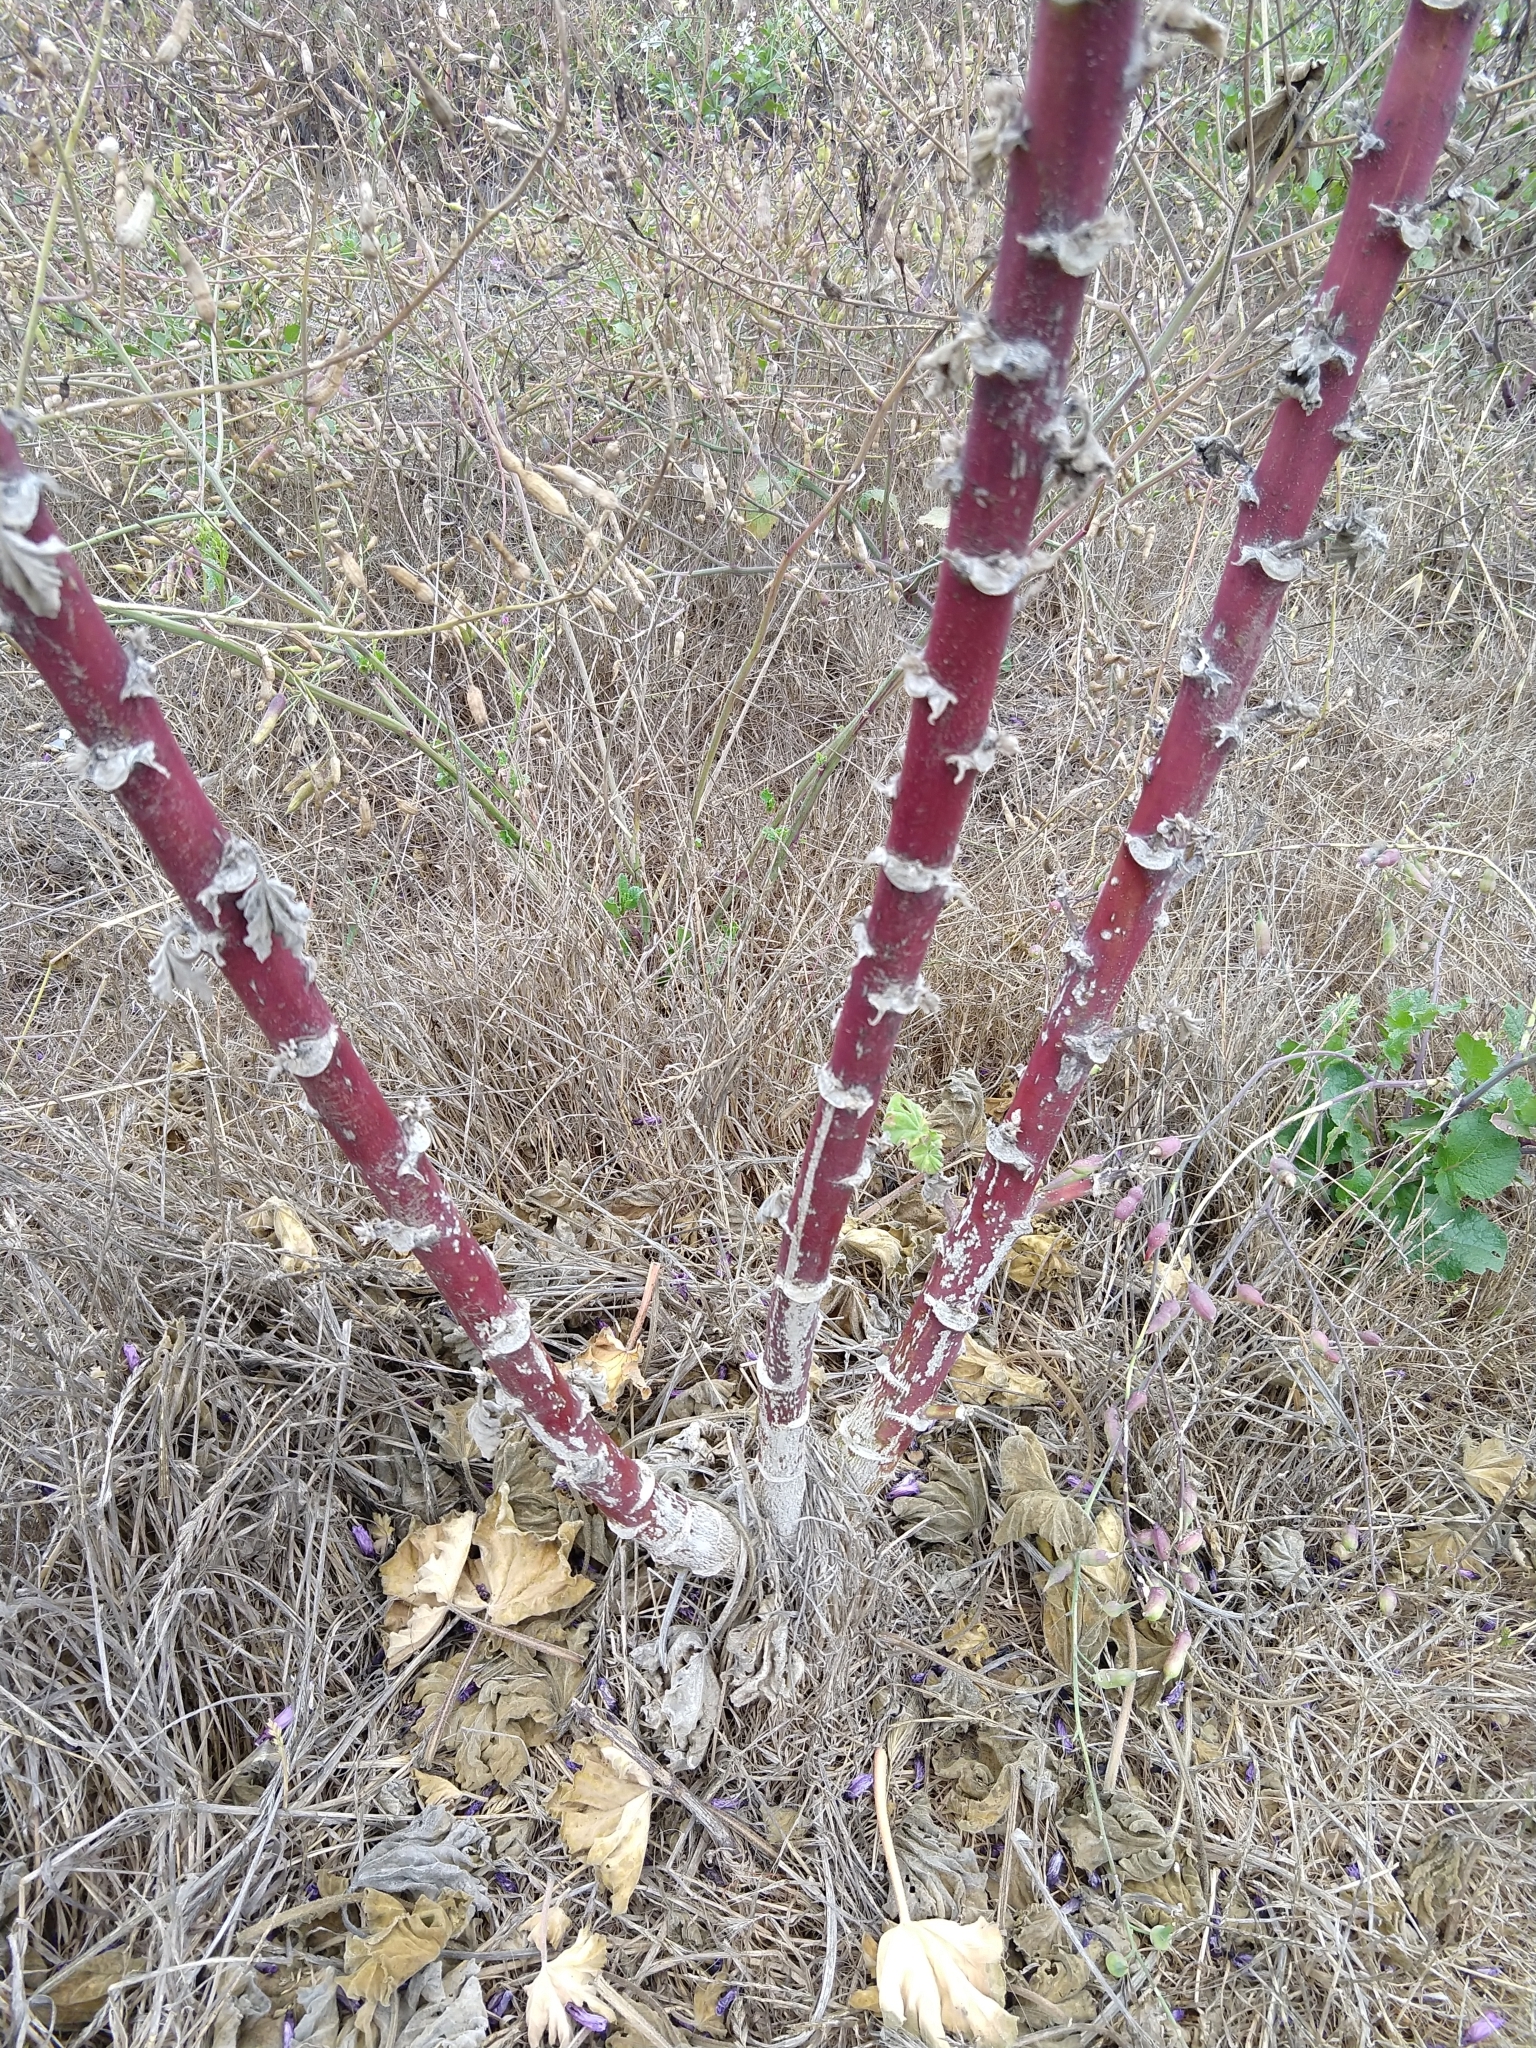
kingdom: Plantae
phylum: Tracheophyta
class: Magnoliopsida
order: Malvales
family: Malvaceae
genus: Malva
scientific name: Malva arborea
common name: Tree mallow
